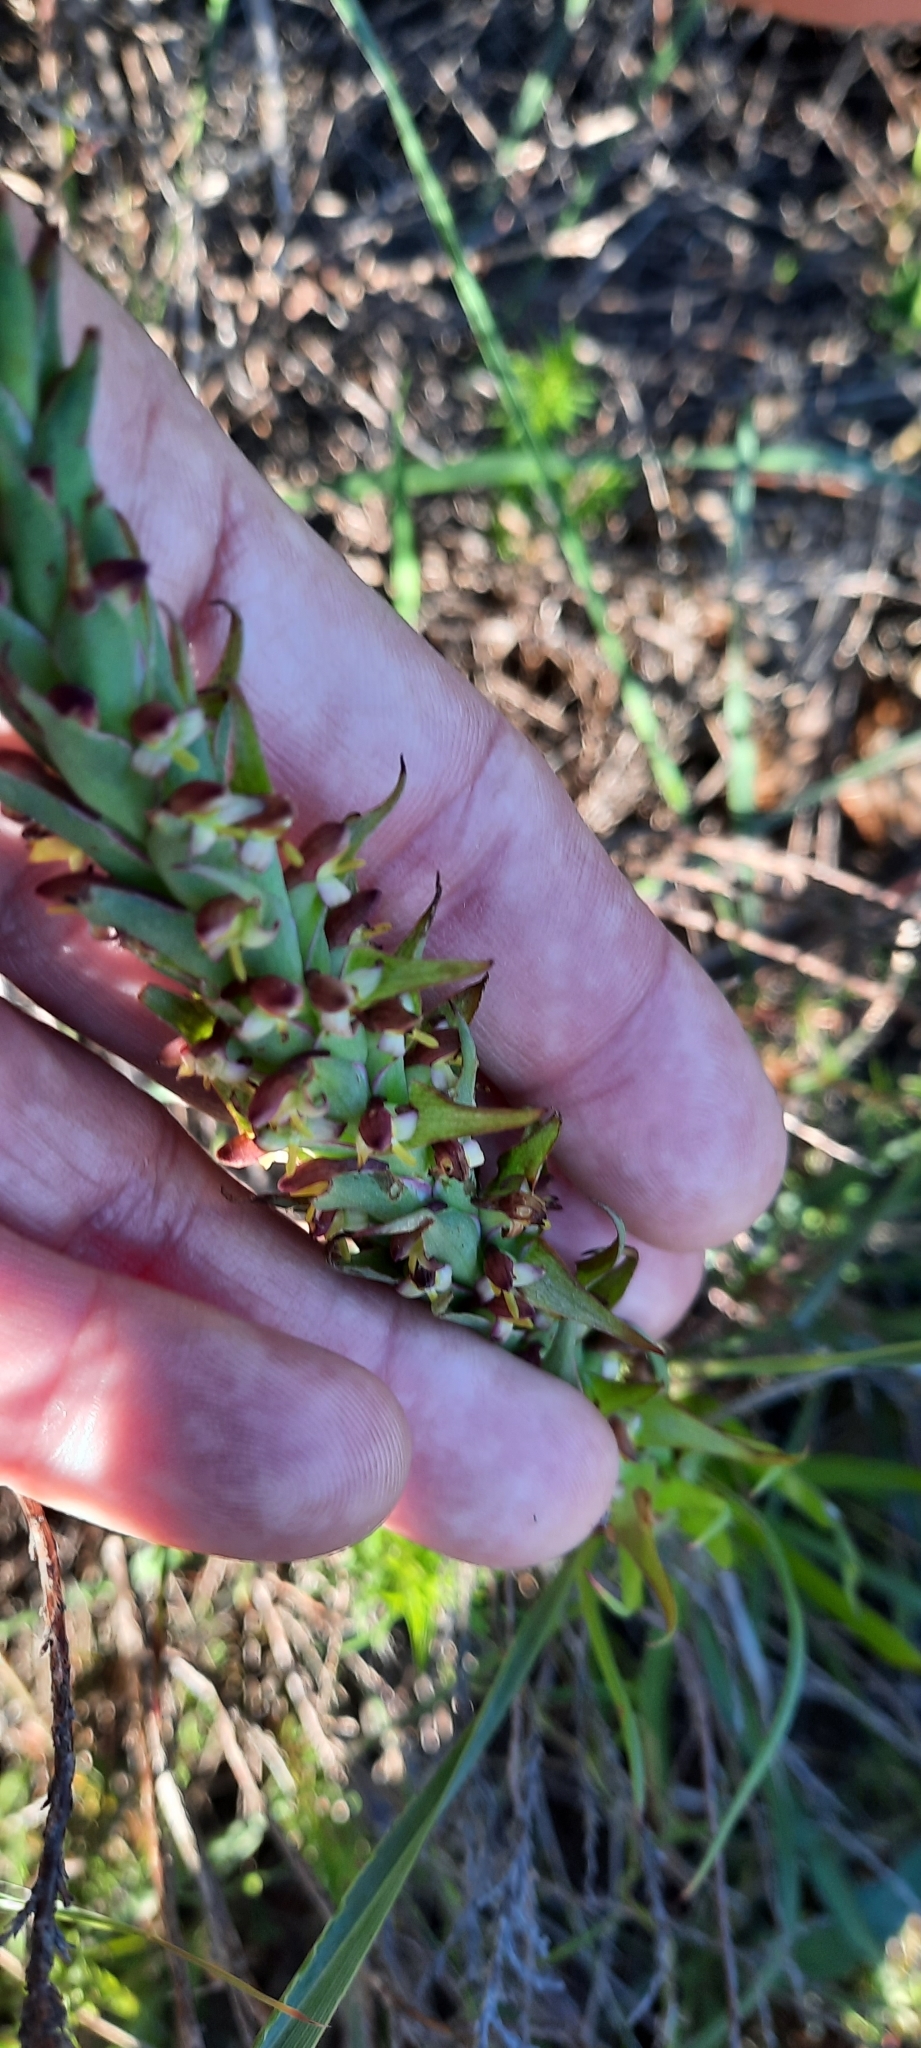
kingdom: Plantae
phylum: Tracheophyta
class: Liliopsida
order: Asparagales
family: Orchidaceae
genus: Disa
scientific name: Disa bracteata
